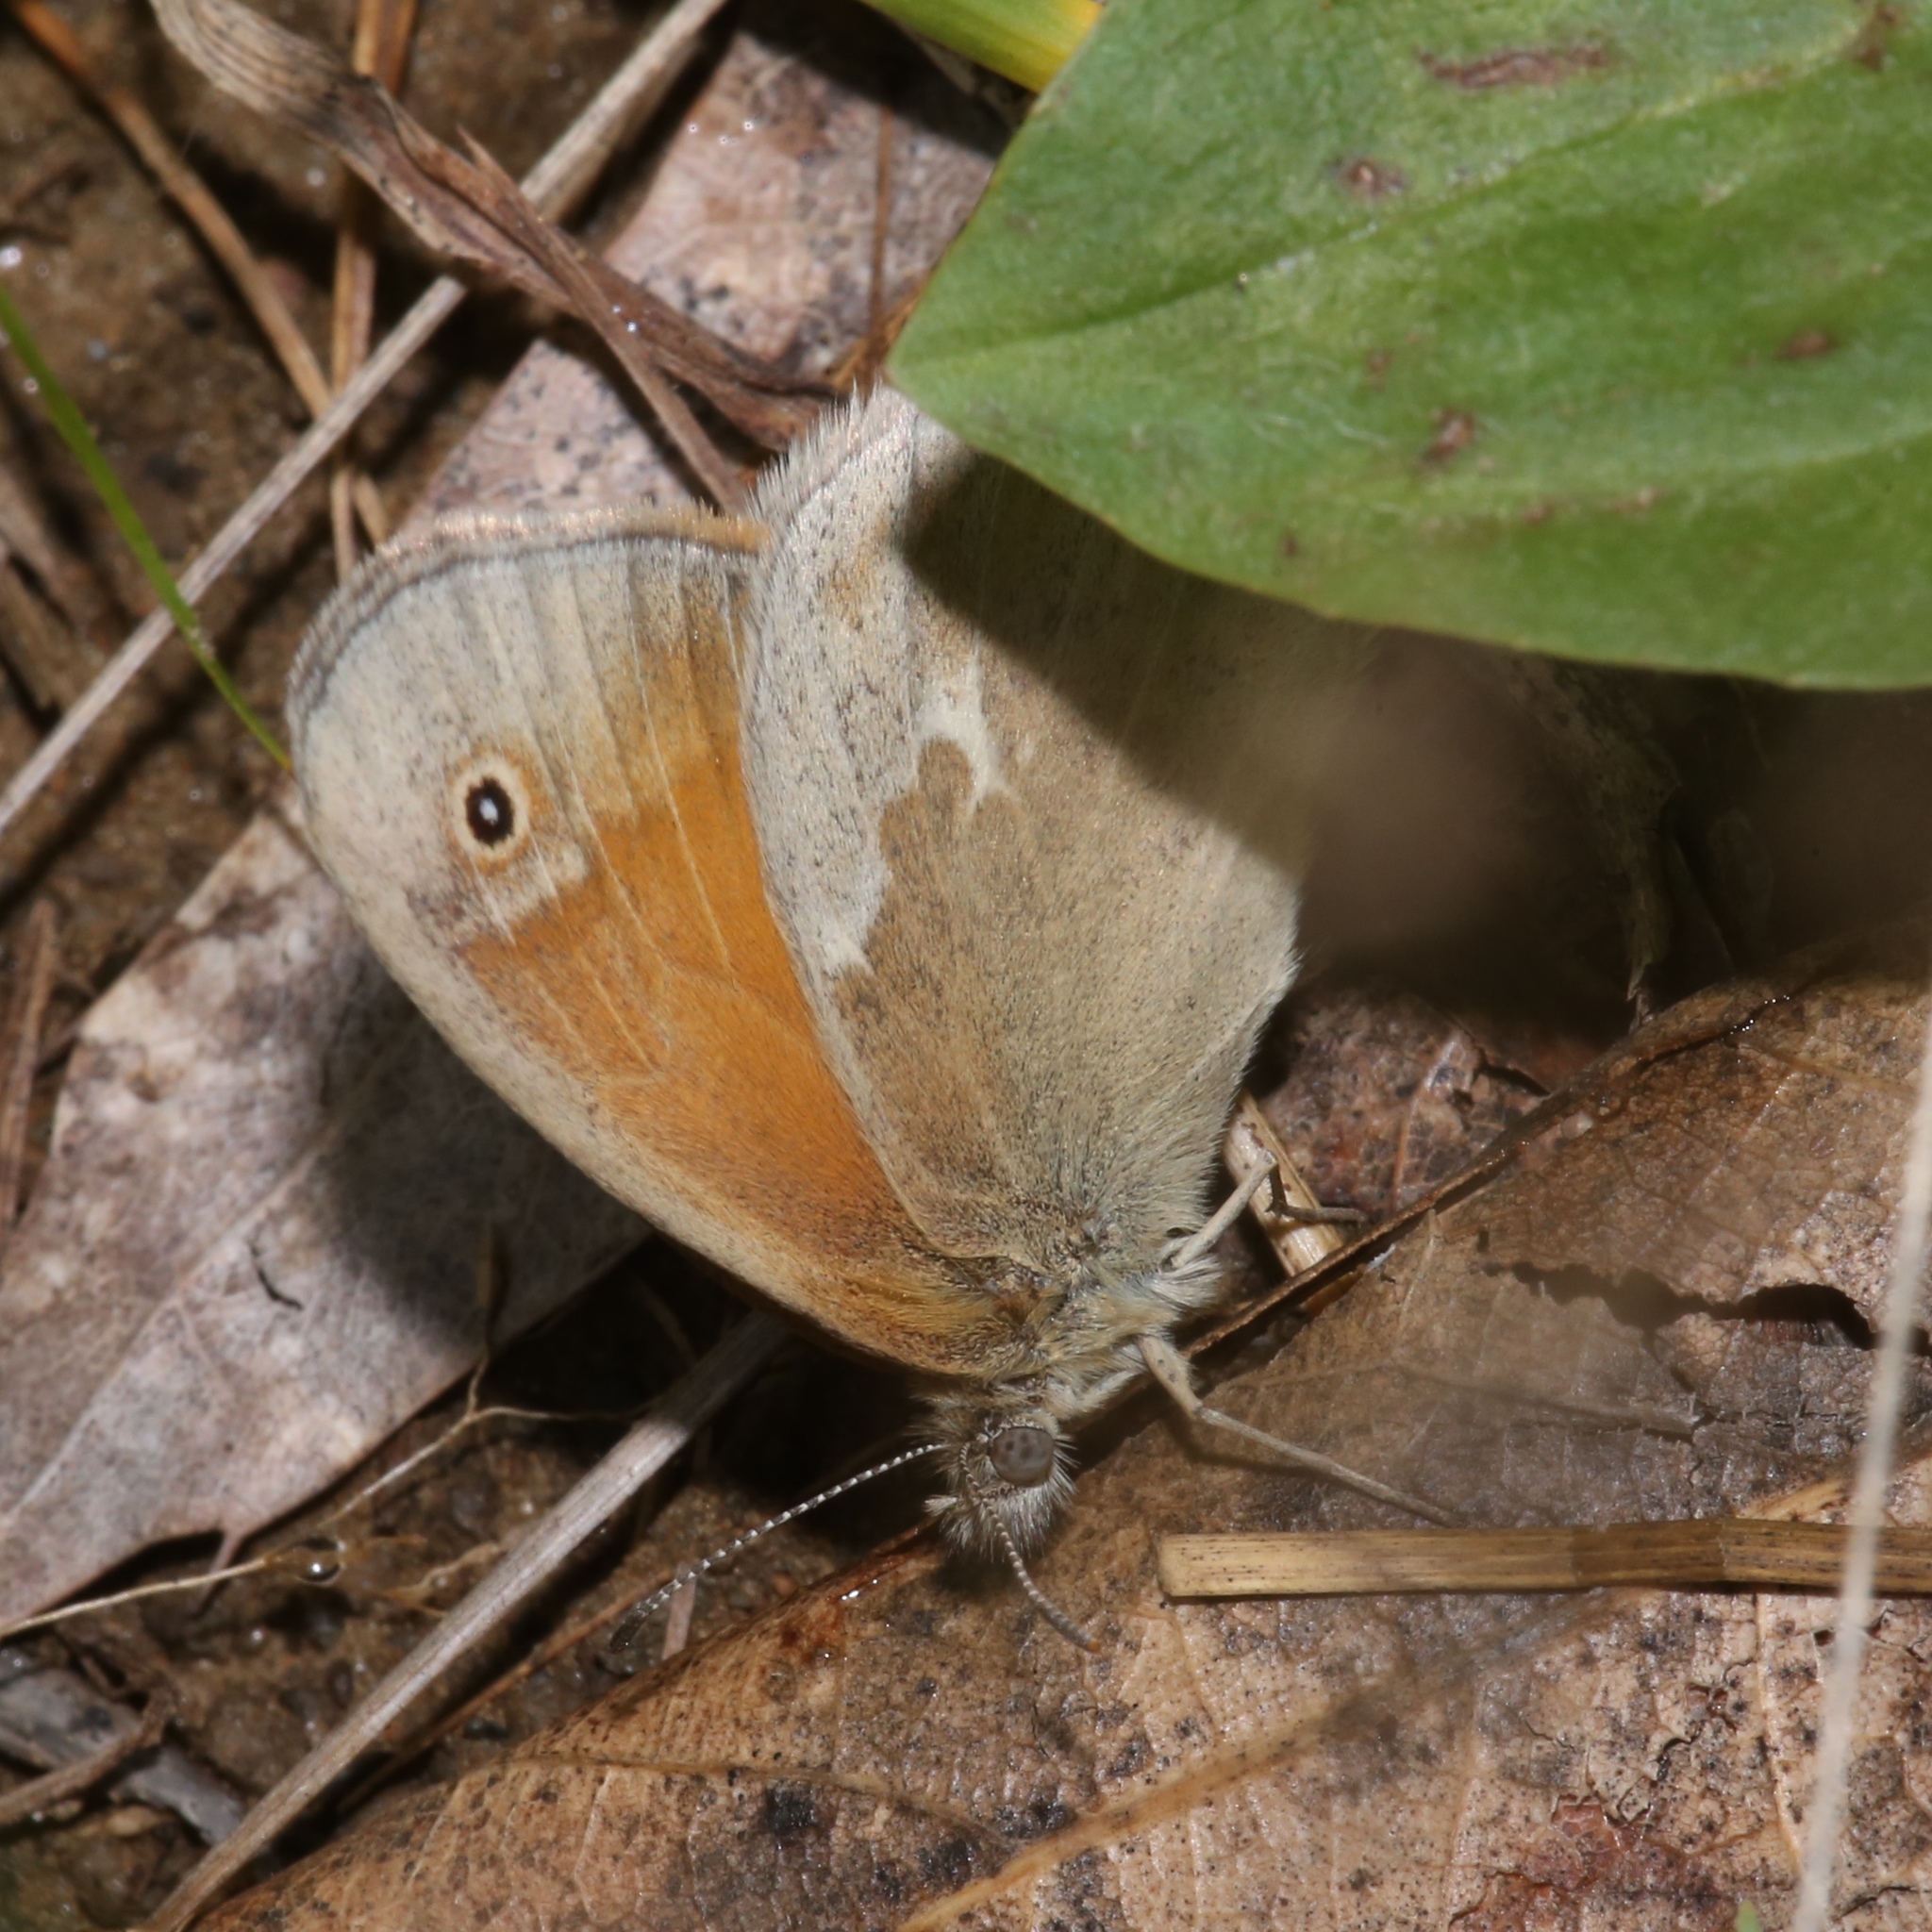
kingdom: Animalia
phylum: Arthropoda
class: Insecta
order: Lepidoptera
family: Nymphalidae
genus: Coenonympha
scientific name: Coenonympha california
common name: Common ringlet
